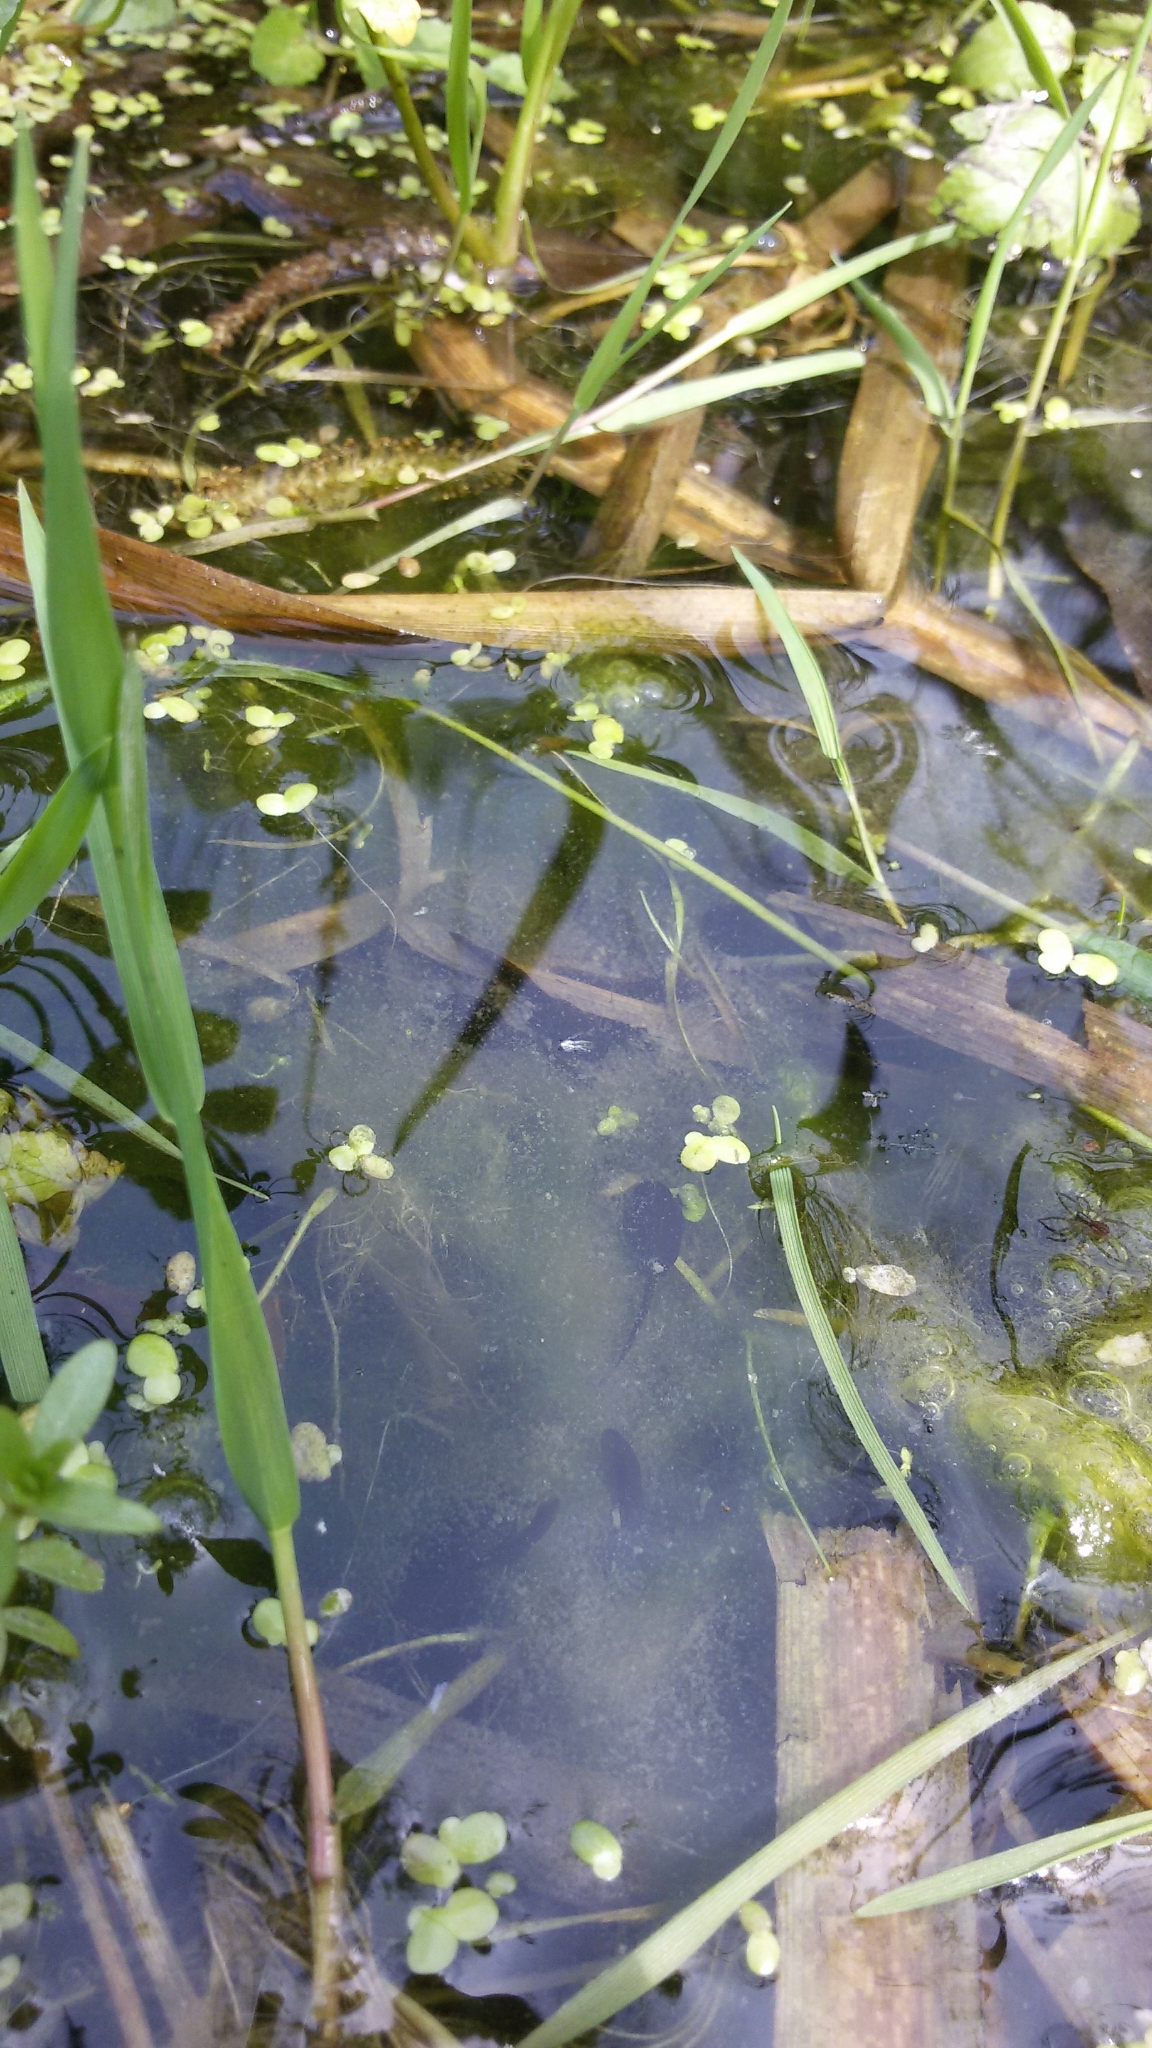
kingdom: Animalia
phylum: Chordata
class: Amphibia
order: Anura
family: Bufonidae
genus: Bufo
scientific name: Bufo bufo
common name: Common toad
